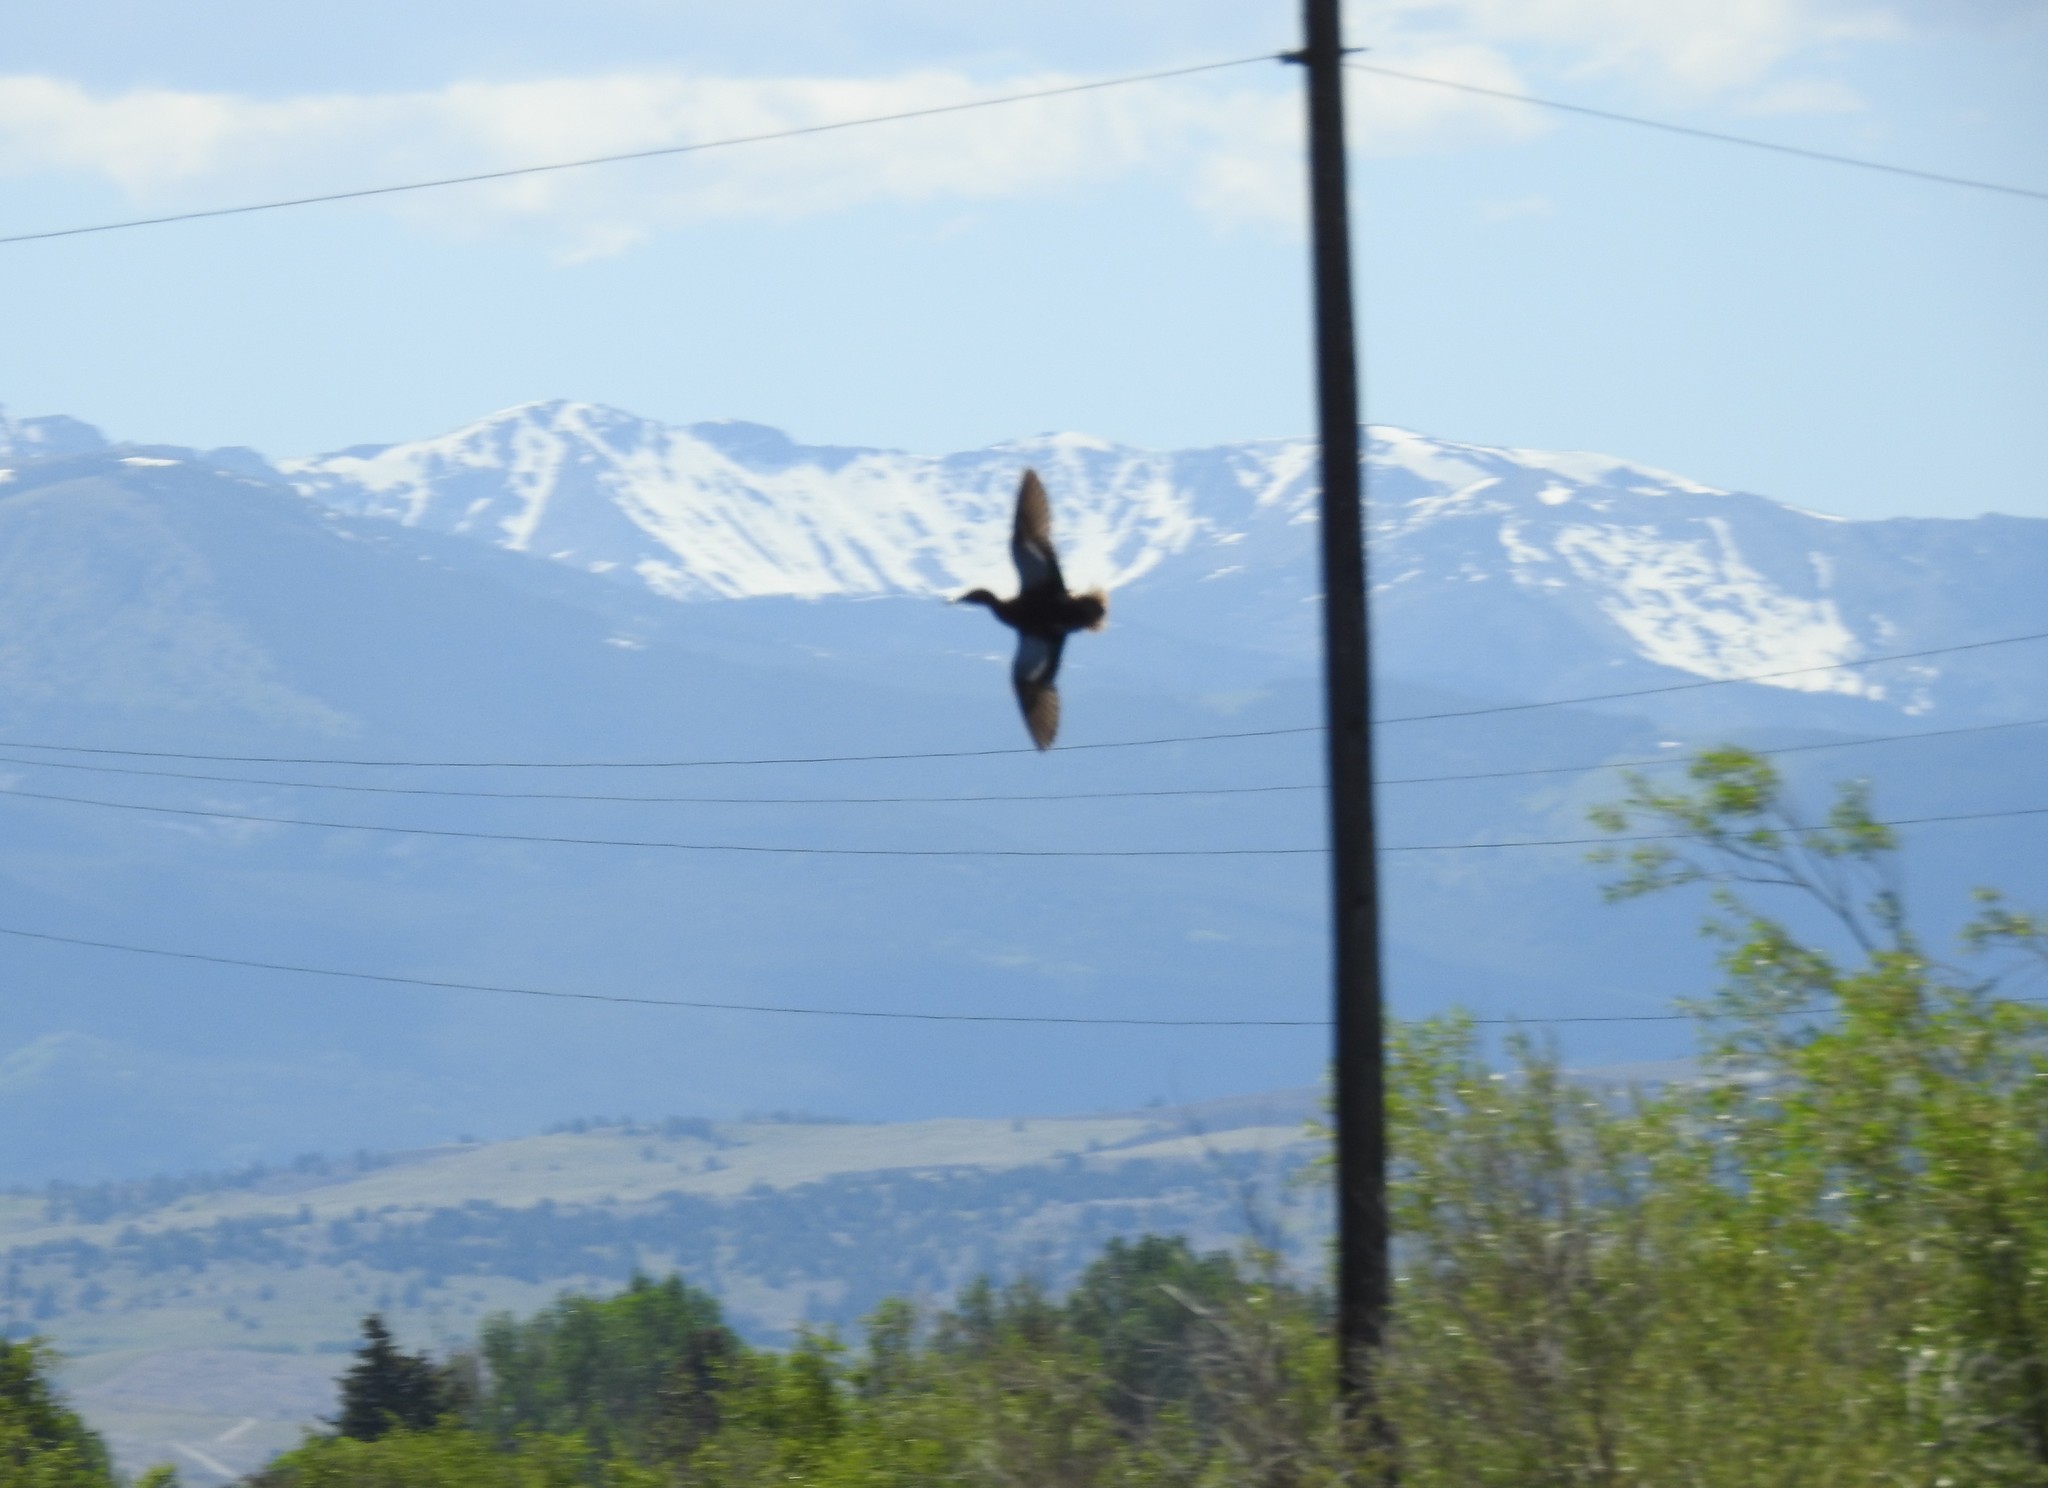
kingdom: Animalia
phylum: Chordata
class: Aves
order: Anseriformes
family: Anatidae
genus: Spatula
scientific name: Spatula cyanoptera
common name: Cinnamon teal
